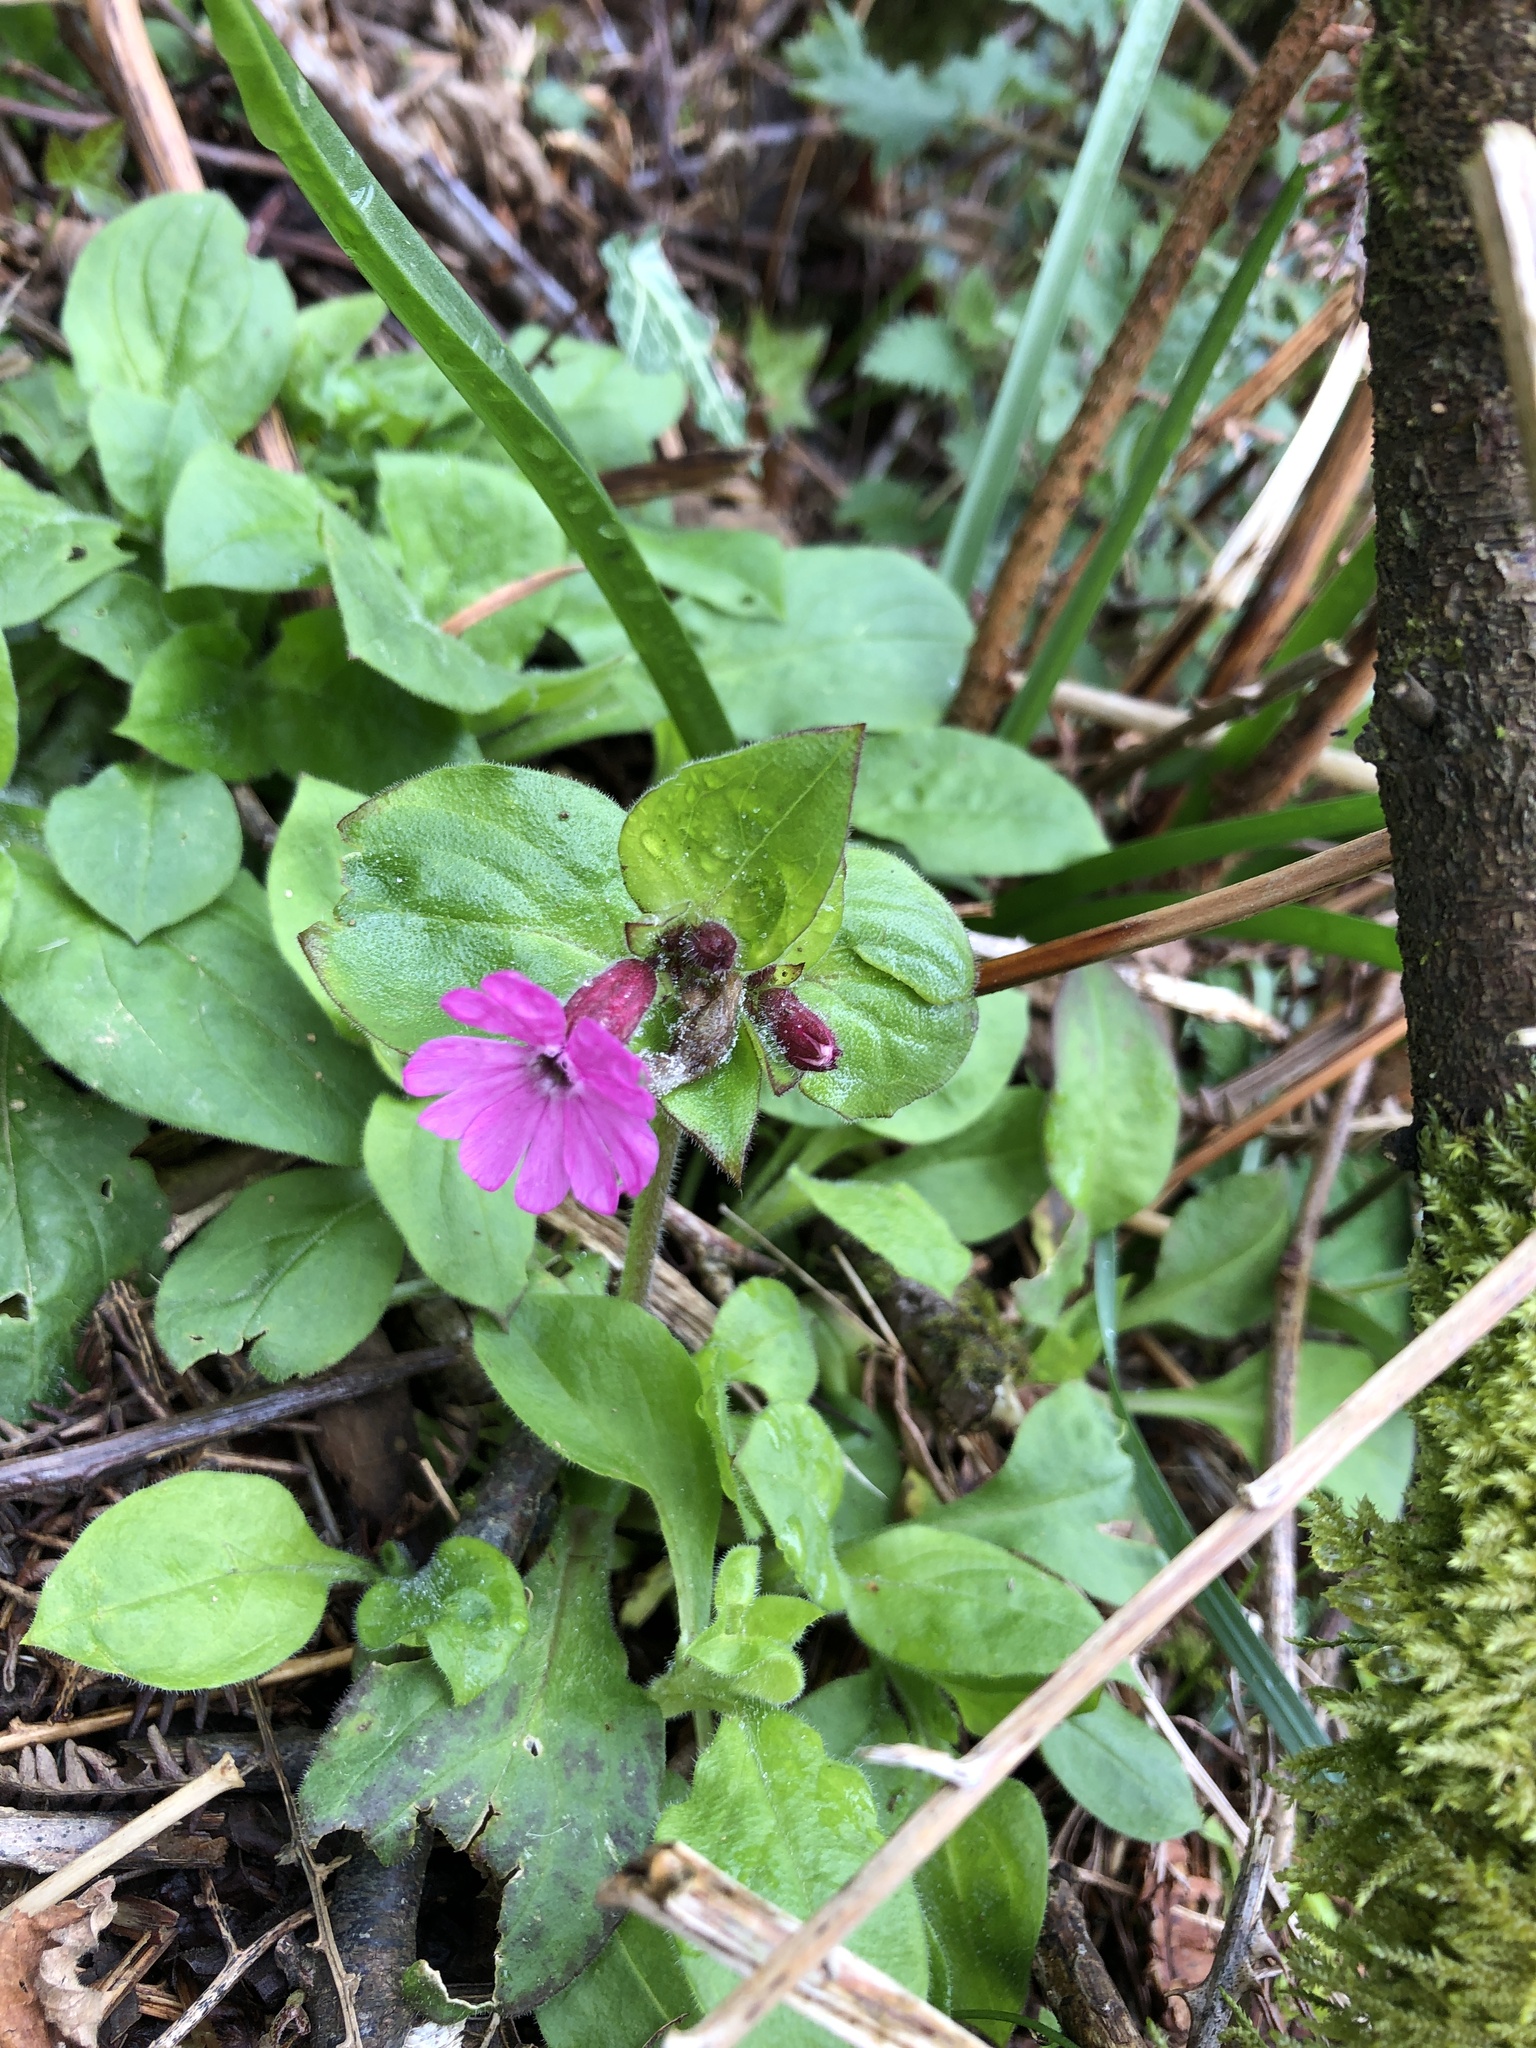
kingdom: Plantae
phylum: Tracheophyta
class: Magnoliopsida
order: Caryophyllales
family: Caryophyllaceae
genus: Silene
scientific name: Silene dioica
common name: Red campion
